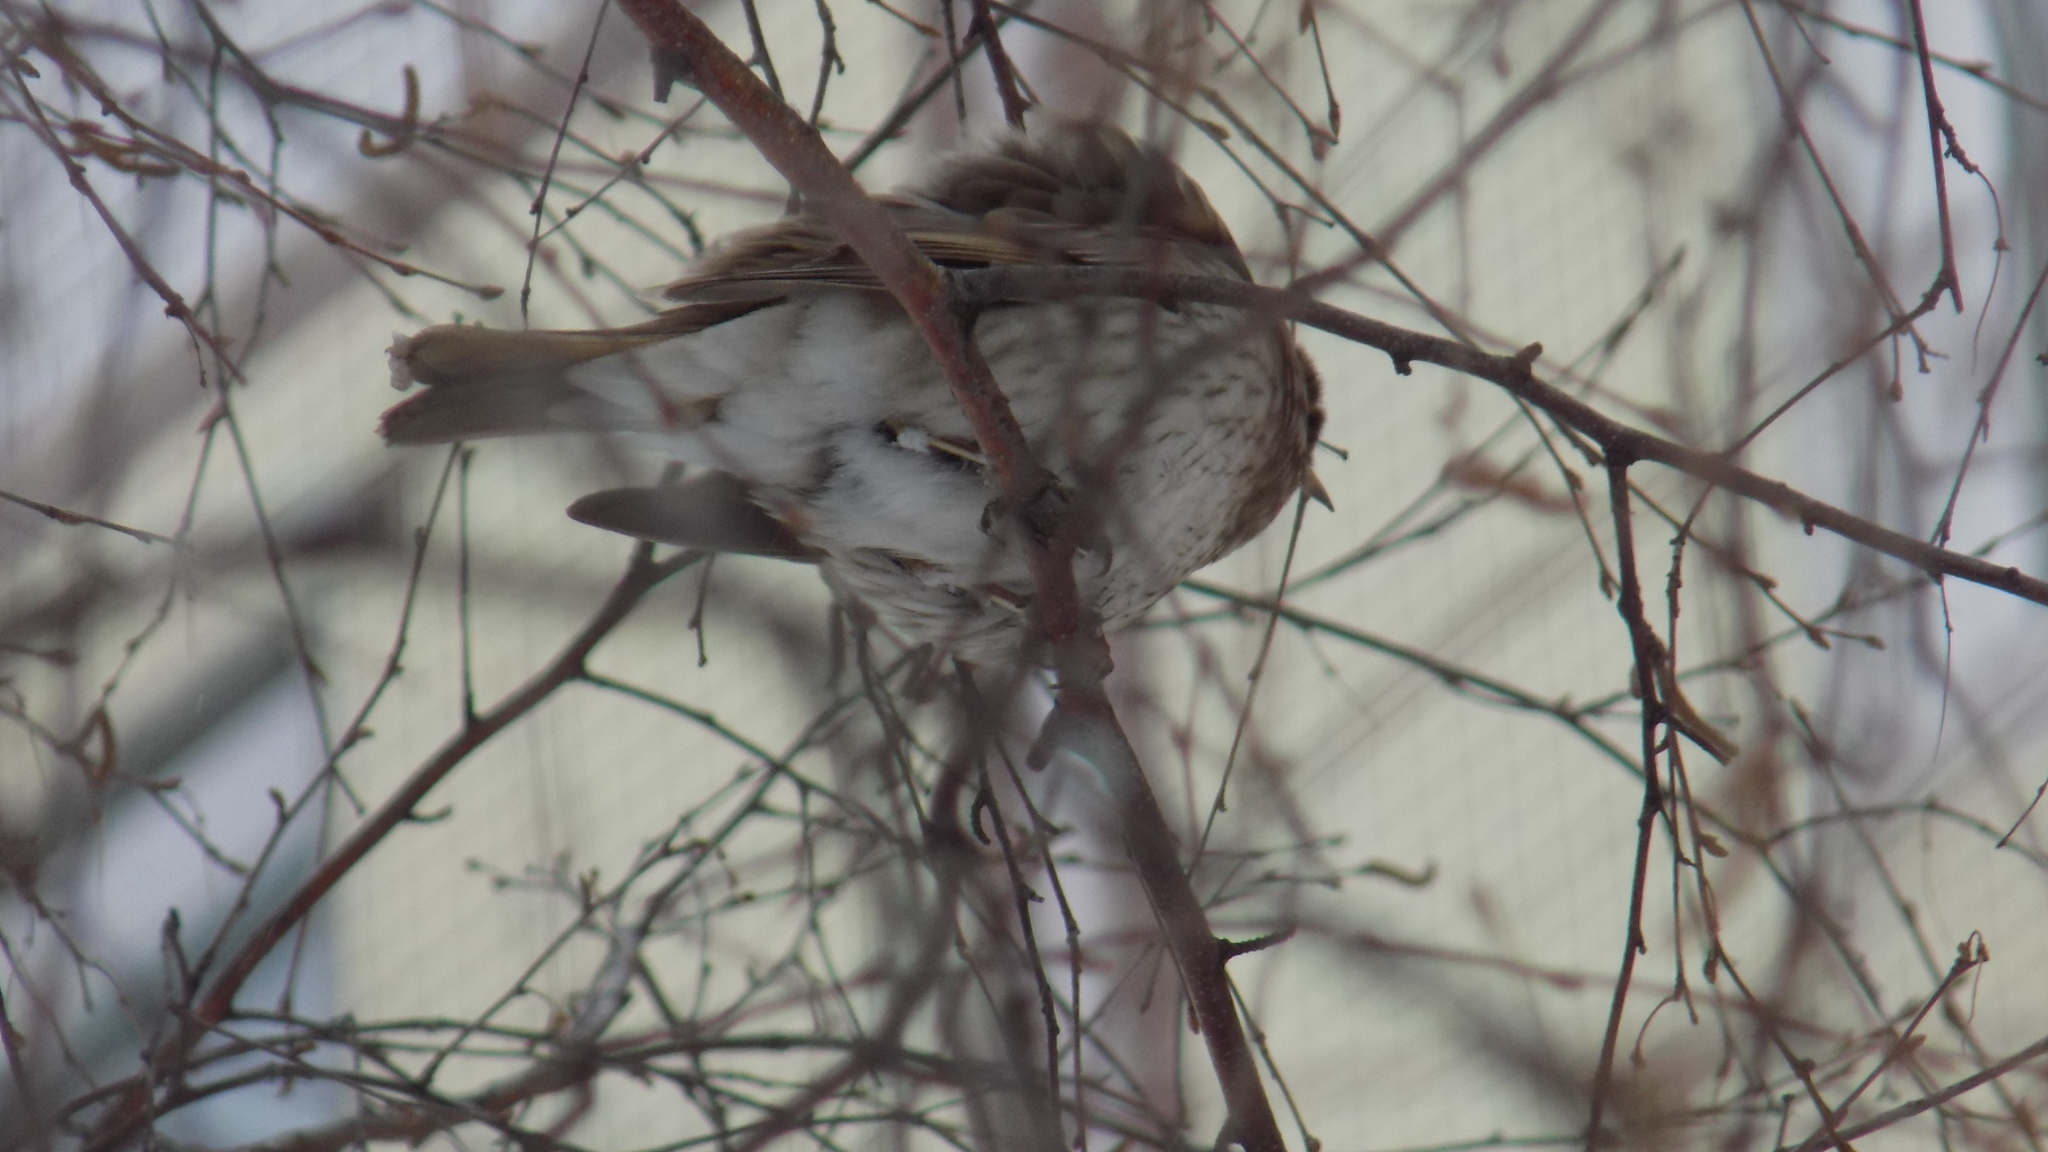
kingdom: Animalia
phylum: Chordata
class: Aves
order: Passeriformes
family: Turdidae
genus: Turdus
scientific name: Turdus atrogularis
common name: Black-throated thrush
